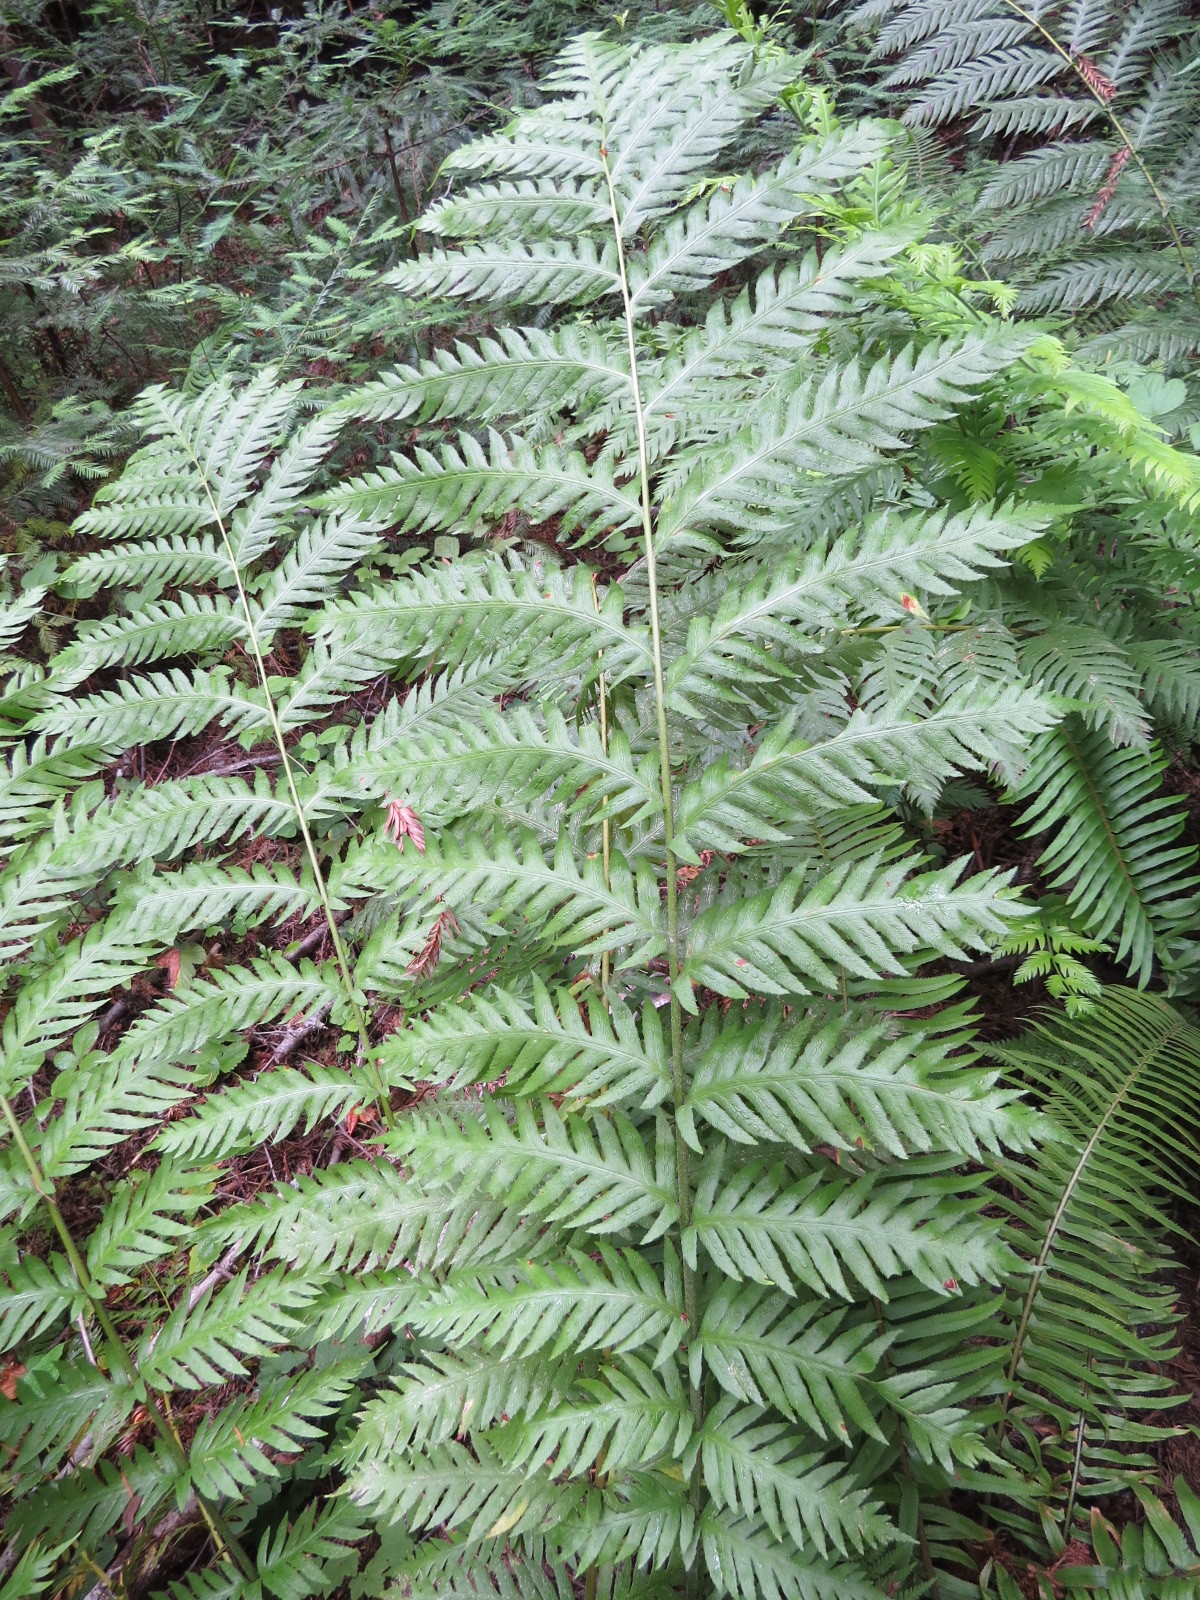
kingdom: Plantae
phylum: Tracheophyta
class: Polypodiopsida
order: Polypodiales
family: Blechnaceae
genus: Woodwardia
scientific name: Woodwardia fimbriata
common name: Giant chain fern
